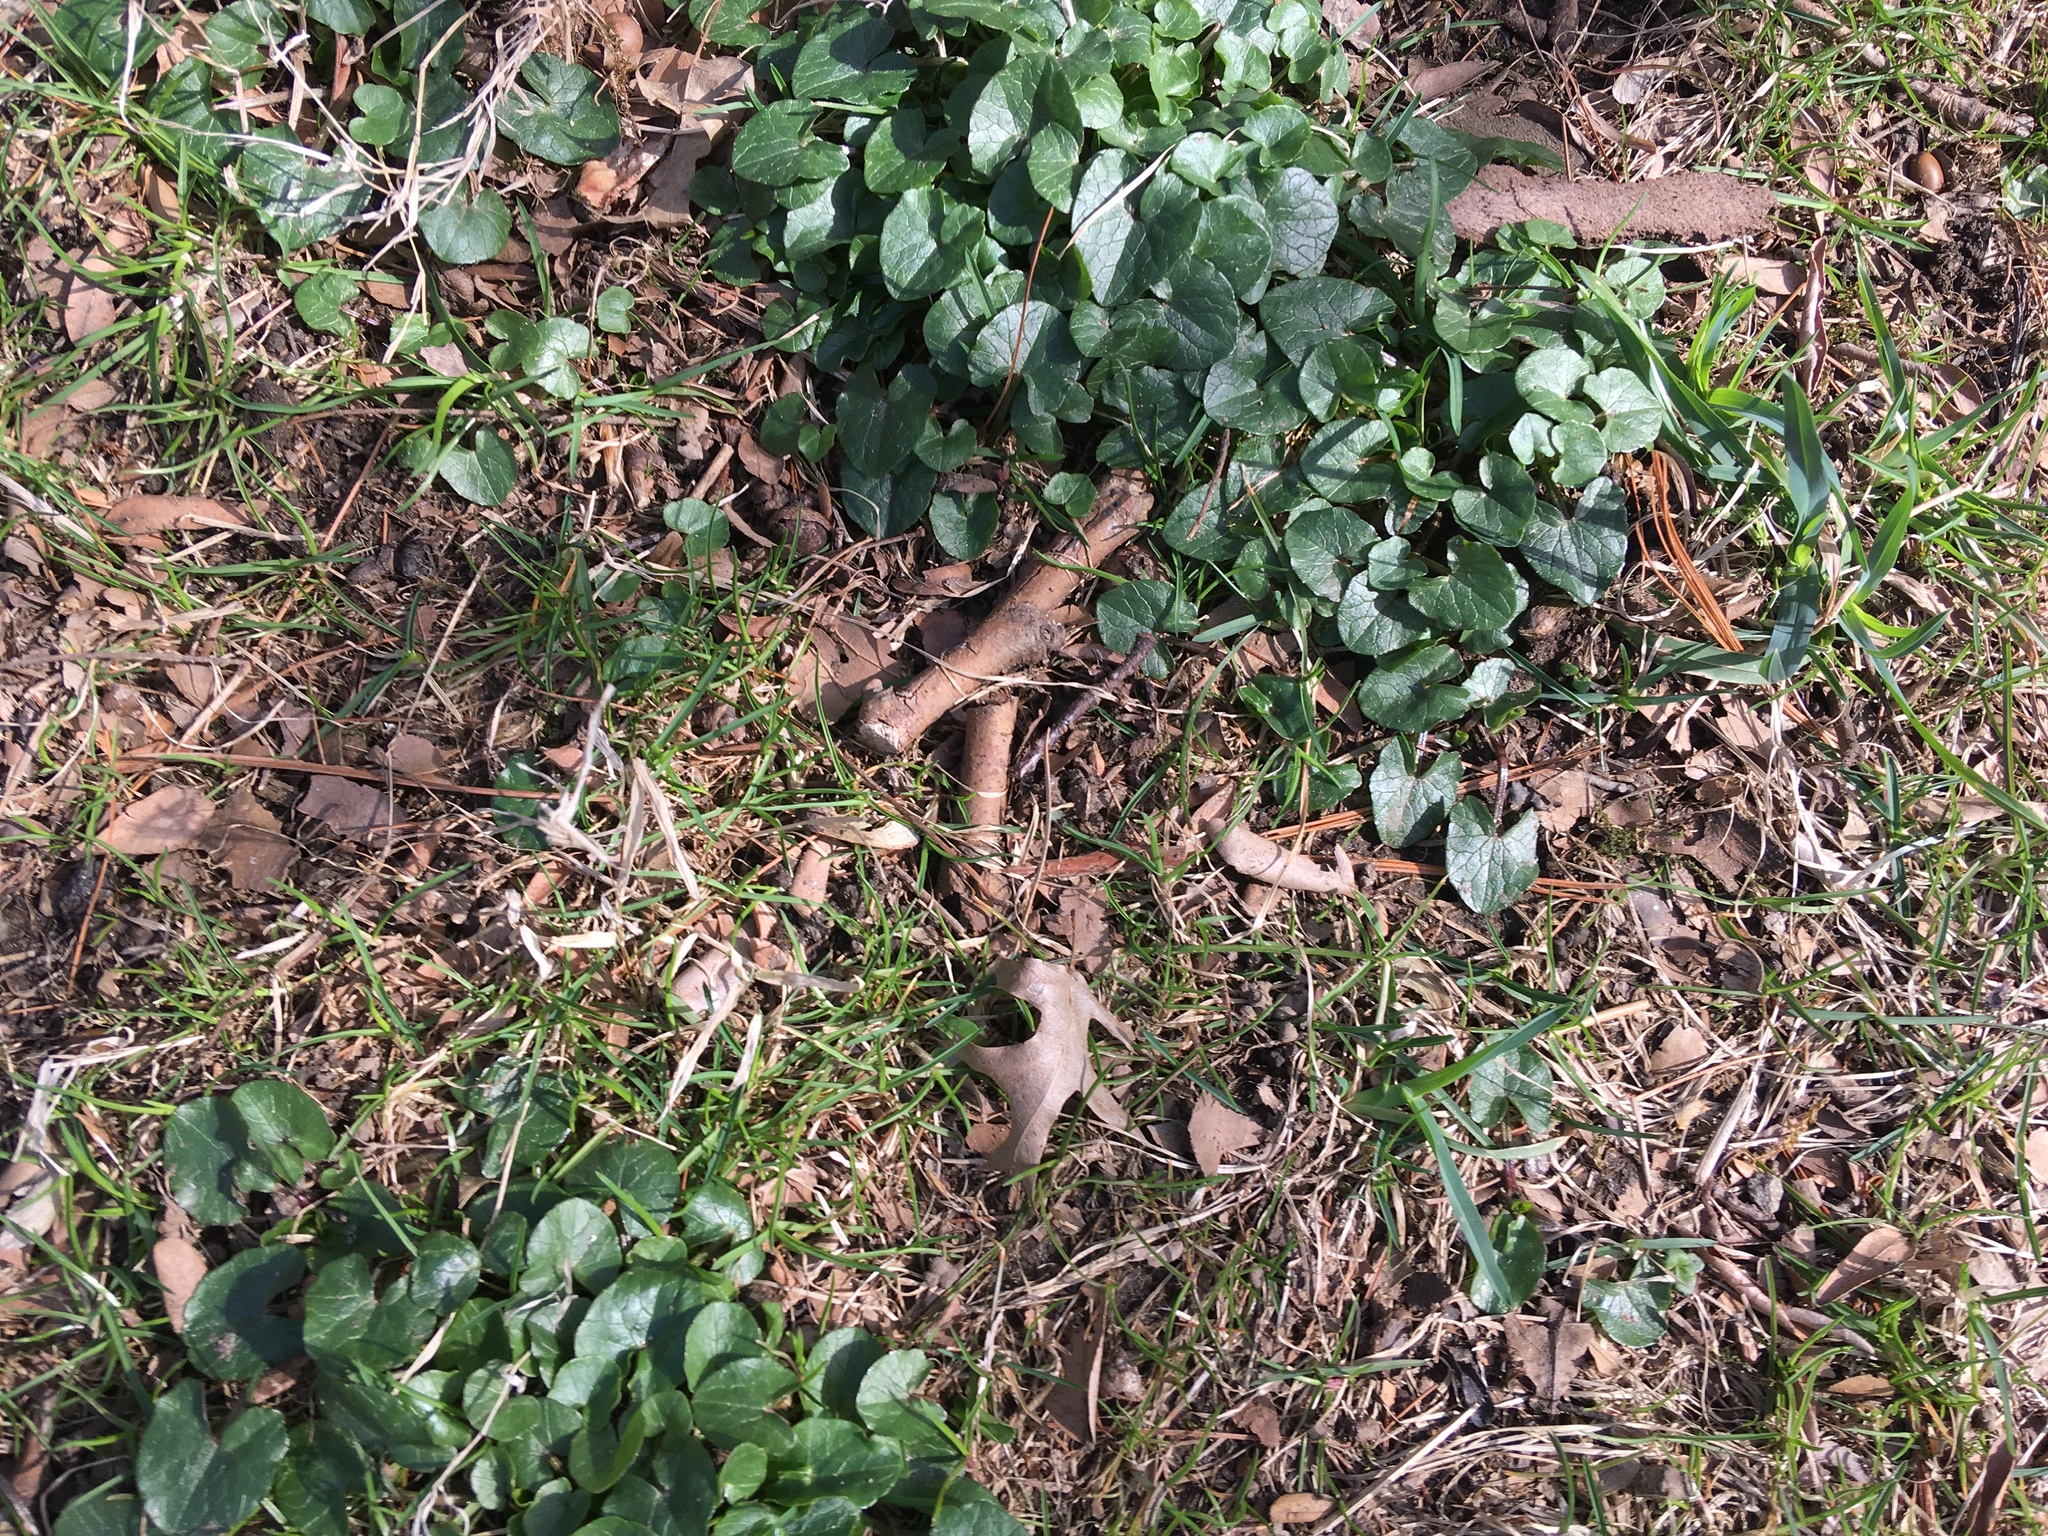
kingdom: Plantae
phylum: Tracheophyta
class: Magnoliopsida
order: Ranunculales
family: Ranunculaceae
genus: Ficaria
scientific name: Ficaria verna
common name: Lesser celandine
